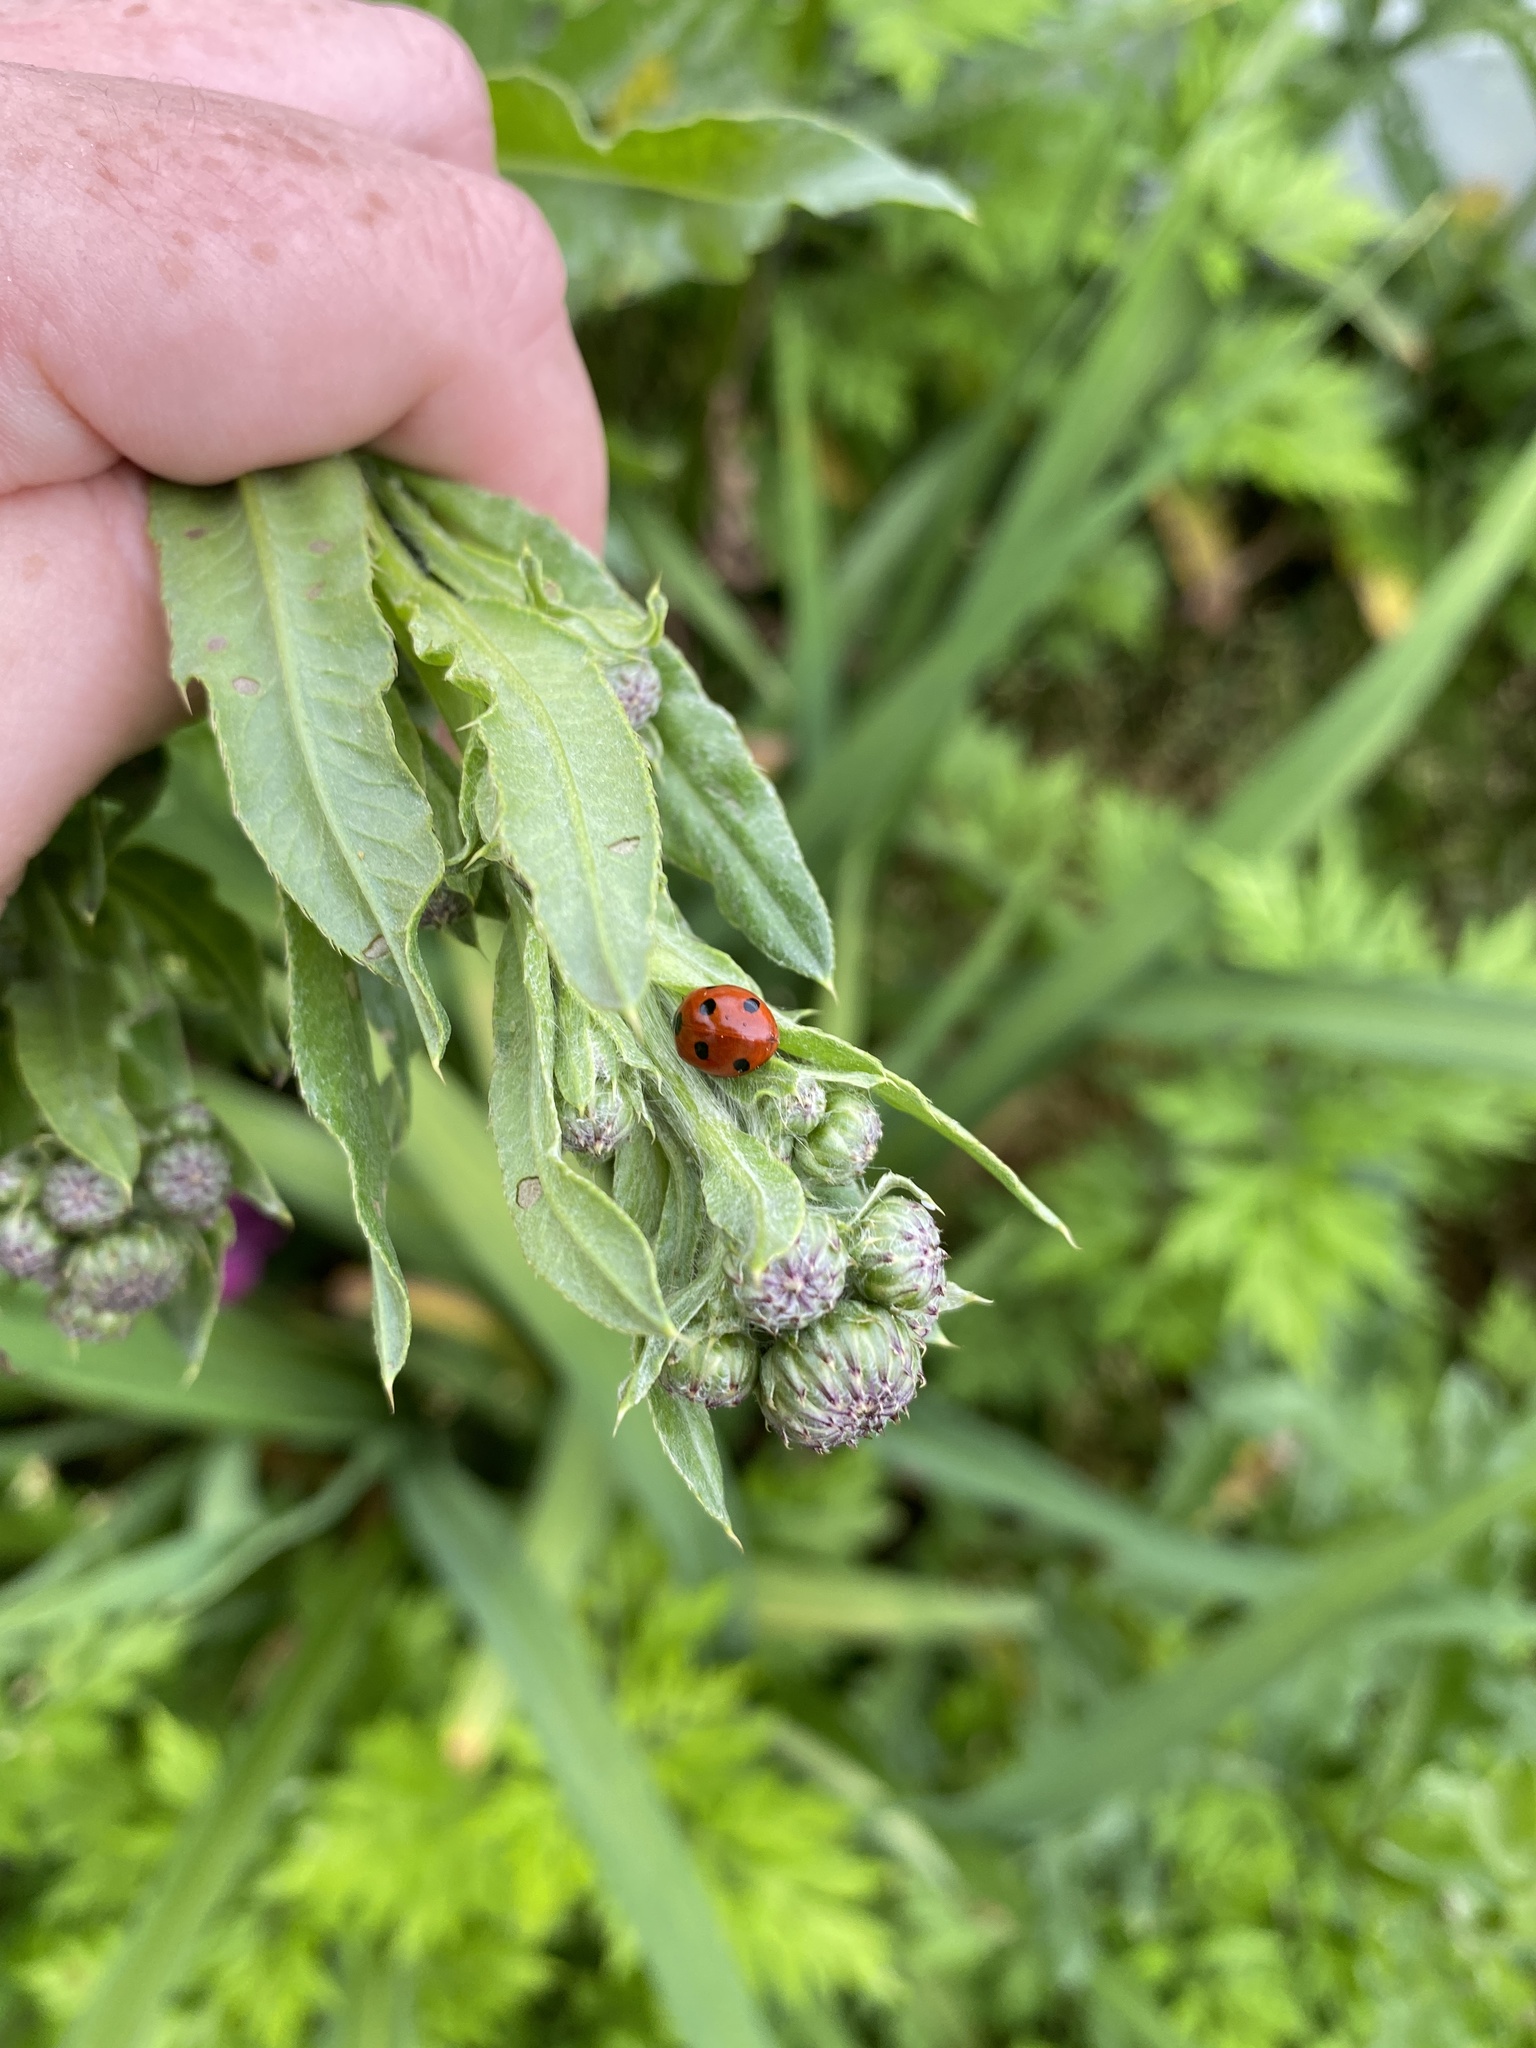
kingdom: Animalia
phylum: Arthropoda
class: Insecta
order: Coleoptera
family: Coccinellidae
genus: Coccinella
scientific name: Coccinella septempunctata
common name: Sevenspotted lady beetle
